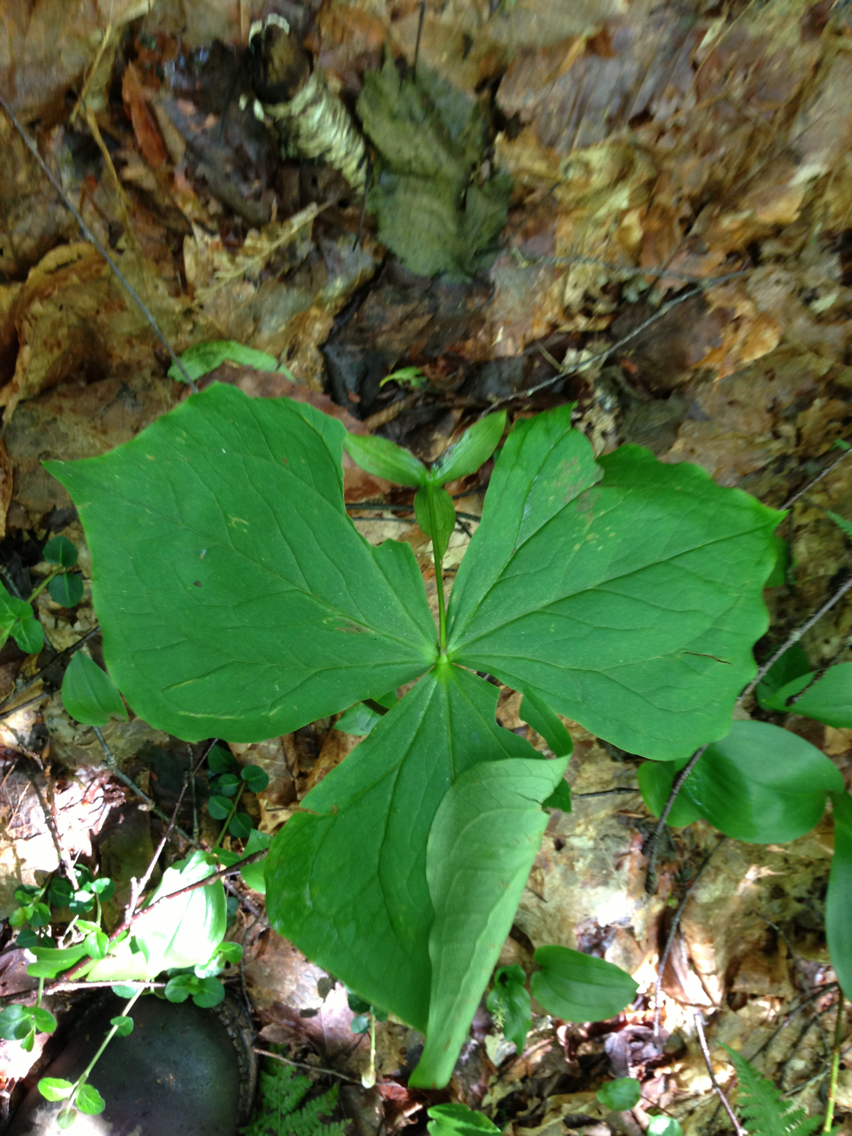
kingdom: Plantae
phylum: Tracheophyta
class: Liliopsida
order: Liliales
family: Melanthiaceae
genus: Trillium
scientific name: Trillium erectum
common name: Purple trillium
